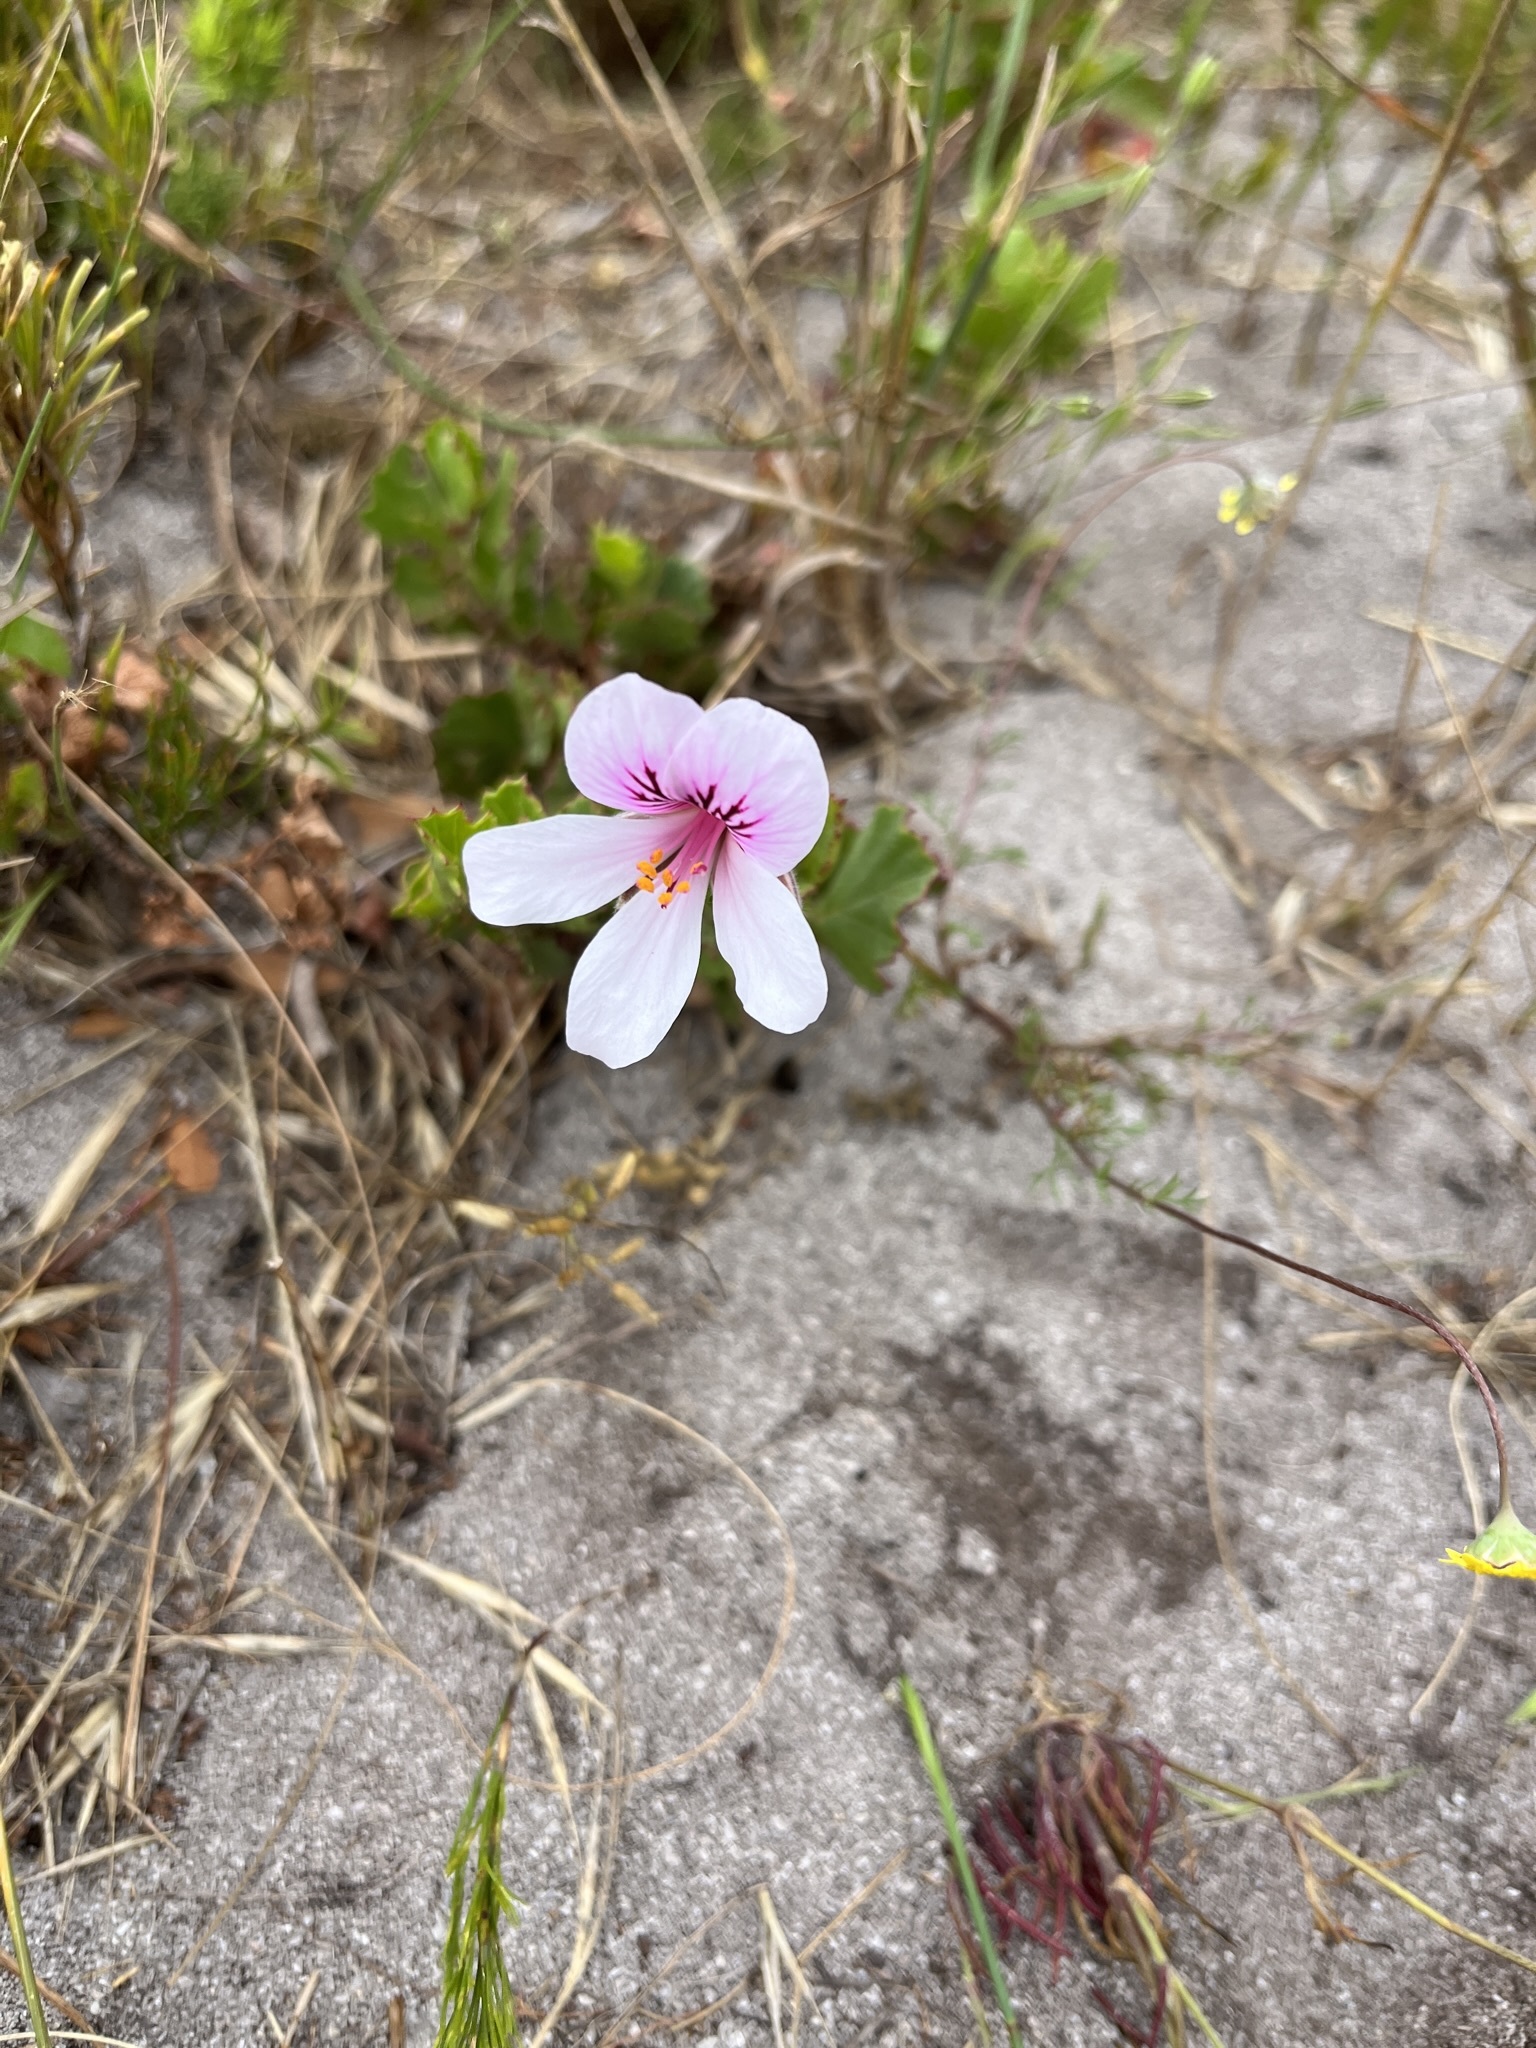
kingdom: Plantae
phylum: Tracheophyta
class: Magnoliopsida
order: Geraniales
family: Geraniaceae
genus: Pelargonium
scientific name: Pelargonium betulinum
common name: Birch-leaf pelargonium
